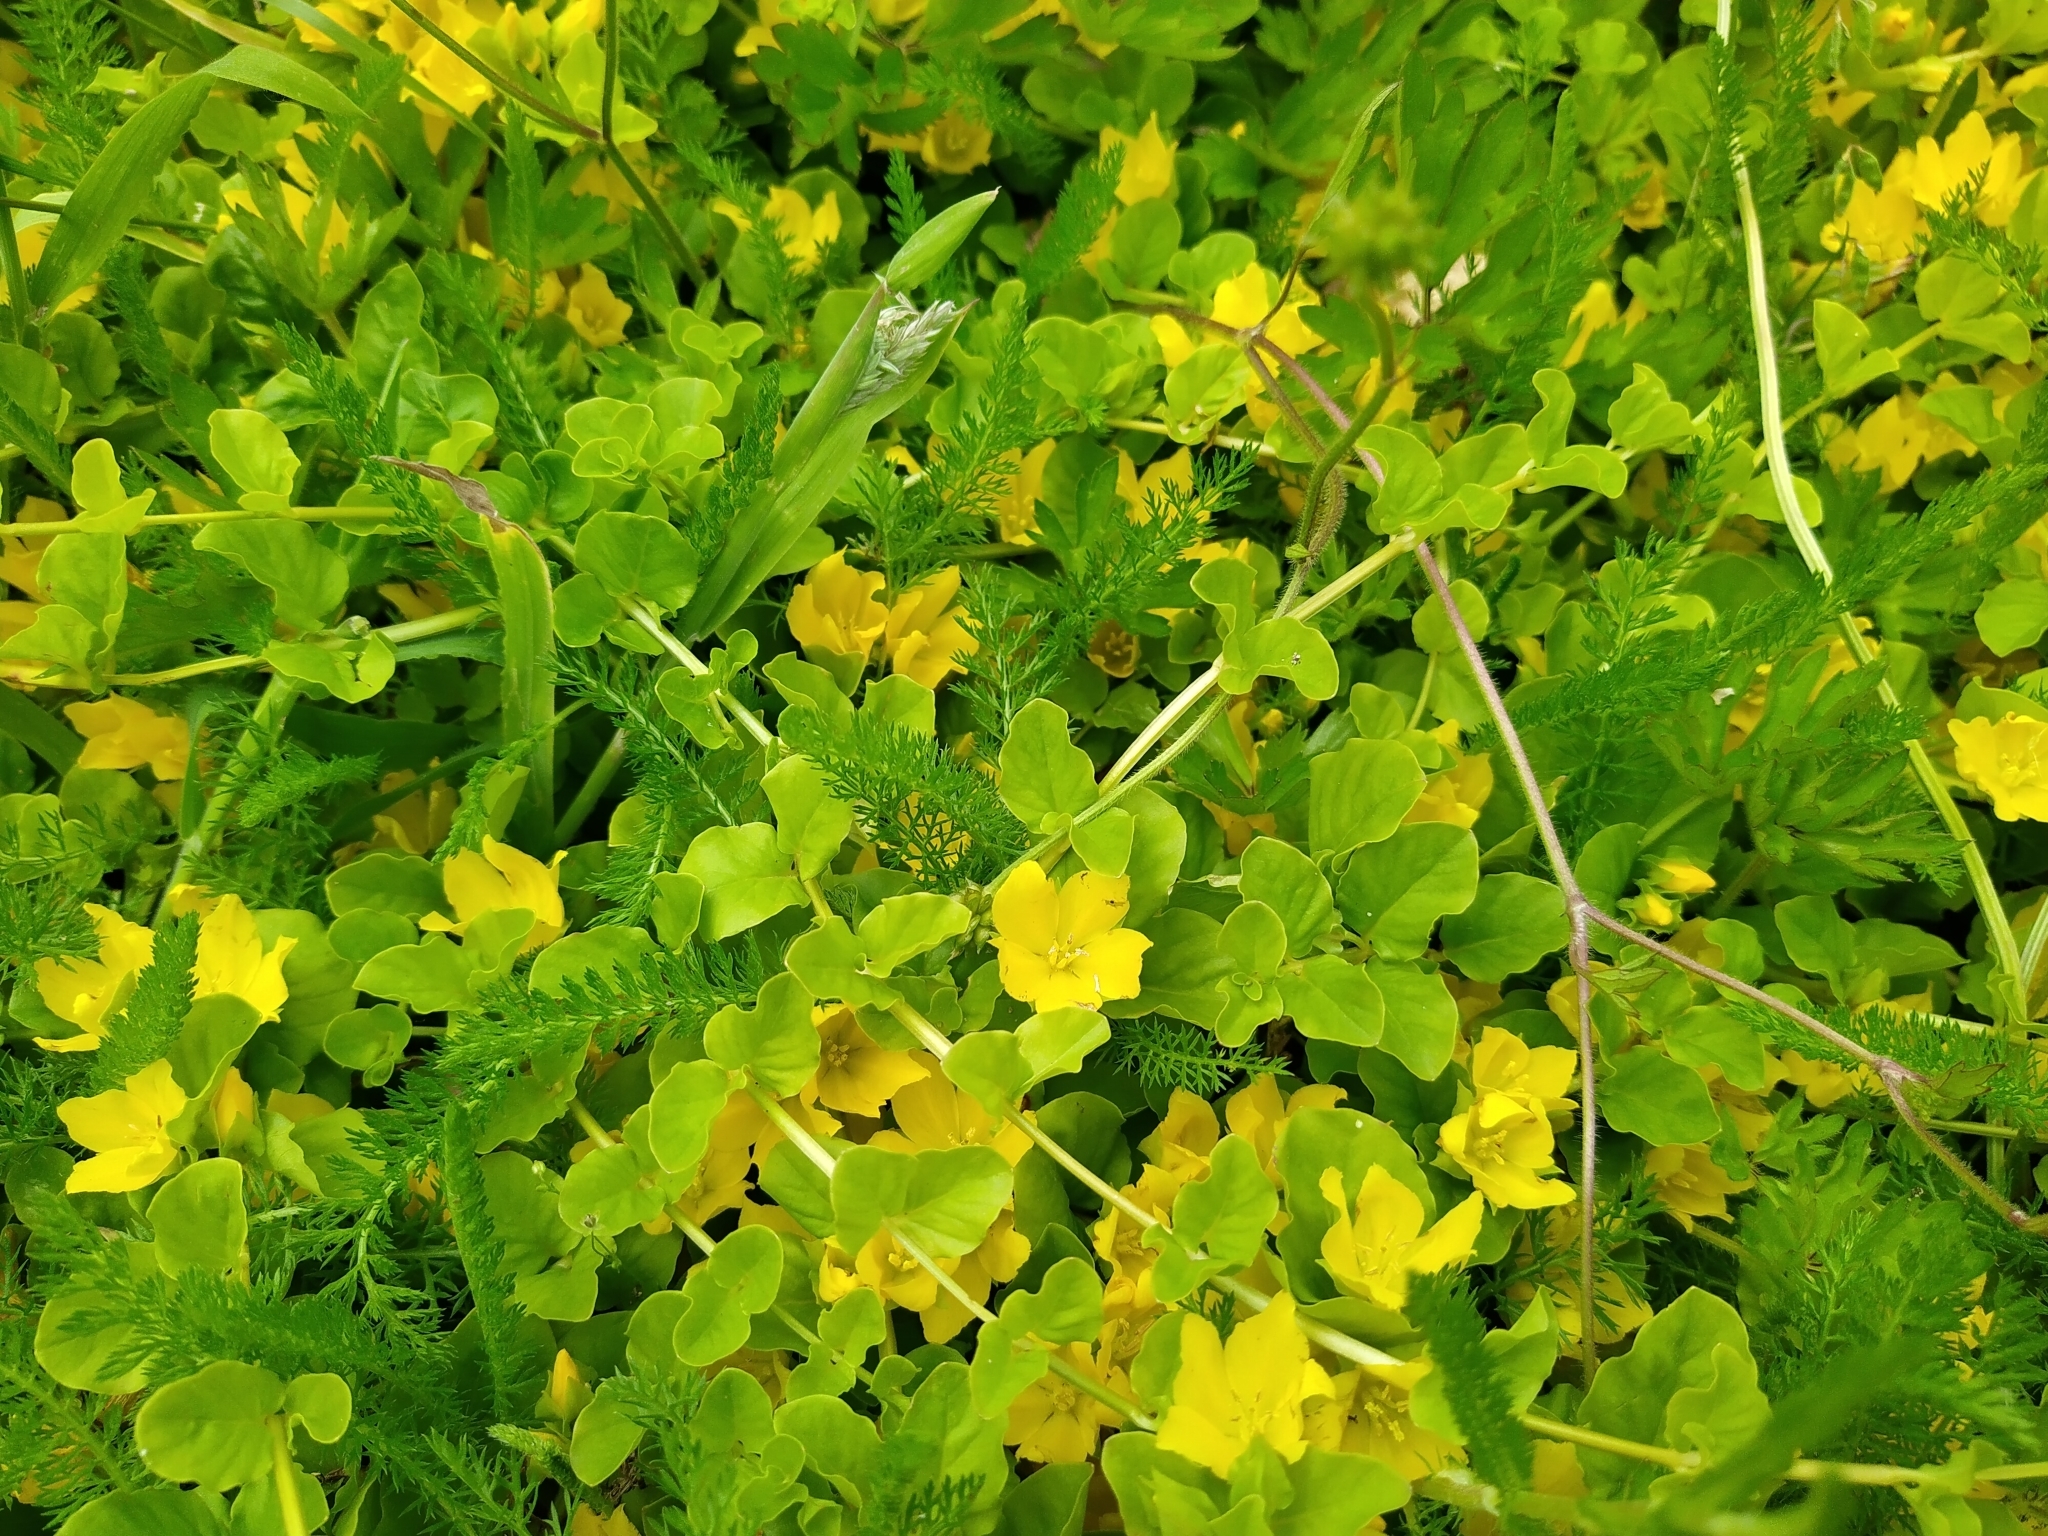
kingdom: Plantae
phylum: Tracheophyta
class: Magnoliopsida
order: Ericales
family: Primulaceae
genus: Lysimachia
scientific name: Lysimachia nummularia
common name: Moneywort
